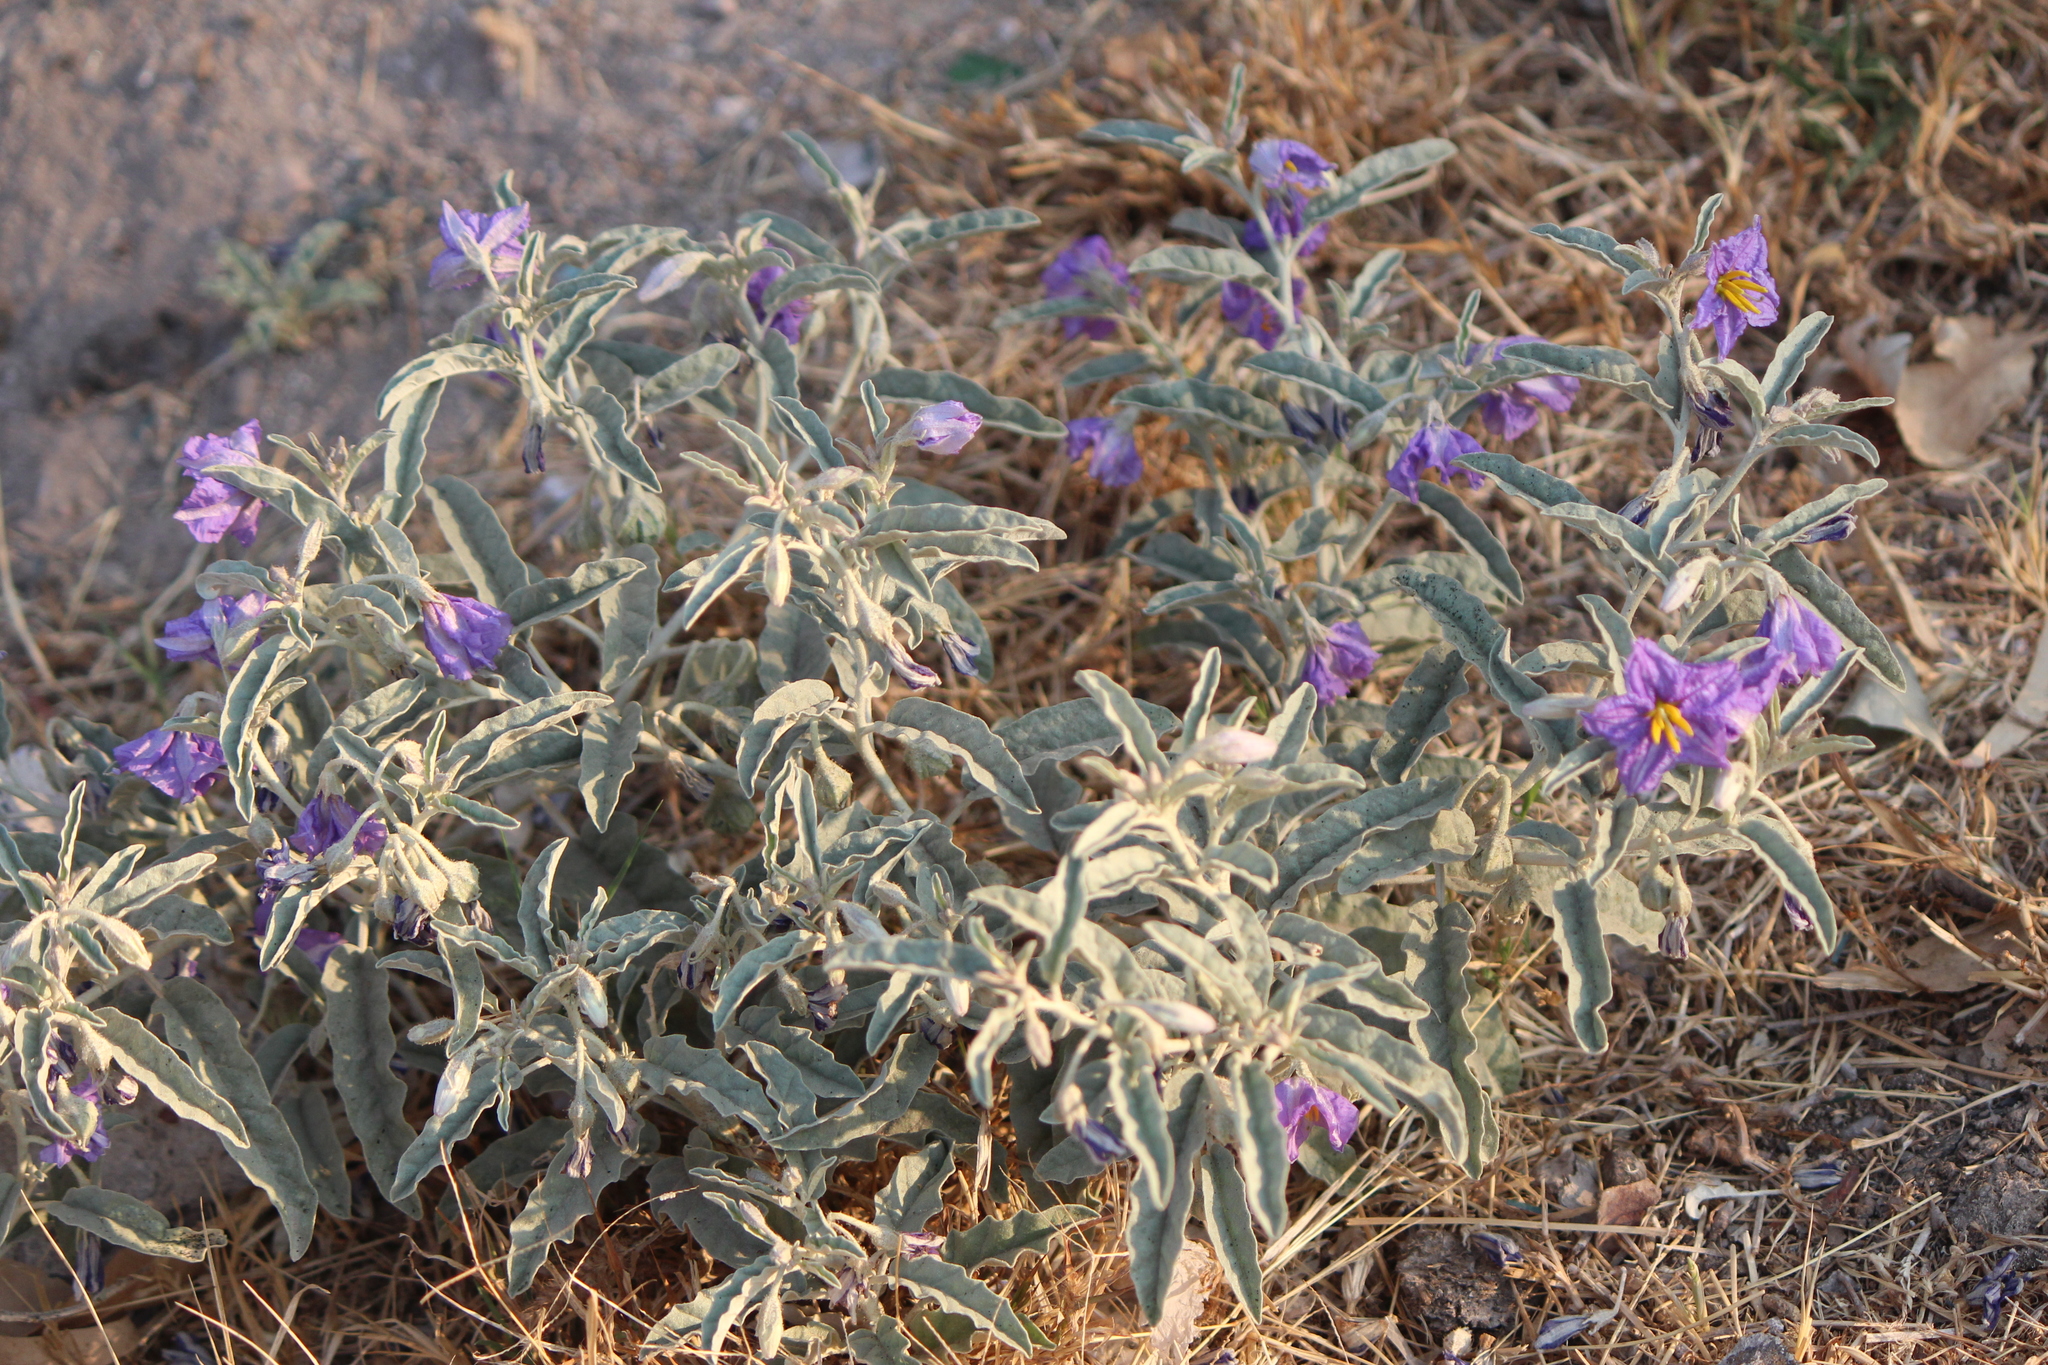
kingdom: Plantae
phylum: Tracheophyta
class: Magnoliopsida
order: Solanales
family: Solanaceae
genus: Solanum
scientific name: Solanum elaeagnifolium
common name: Silverleaf nightshade
